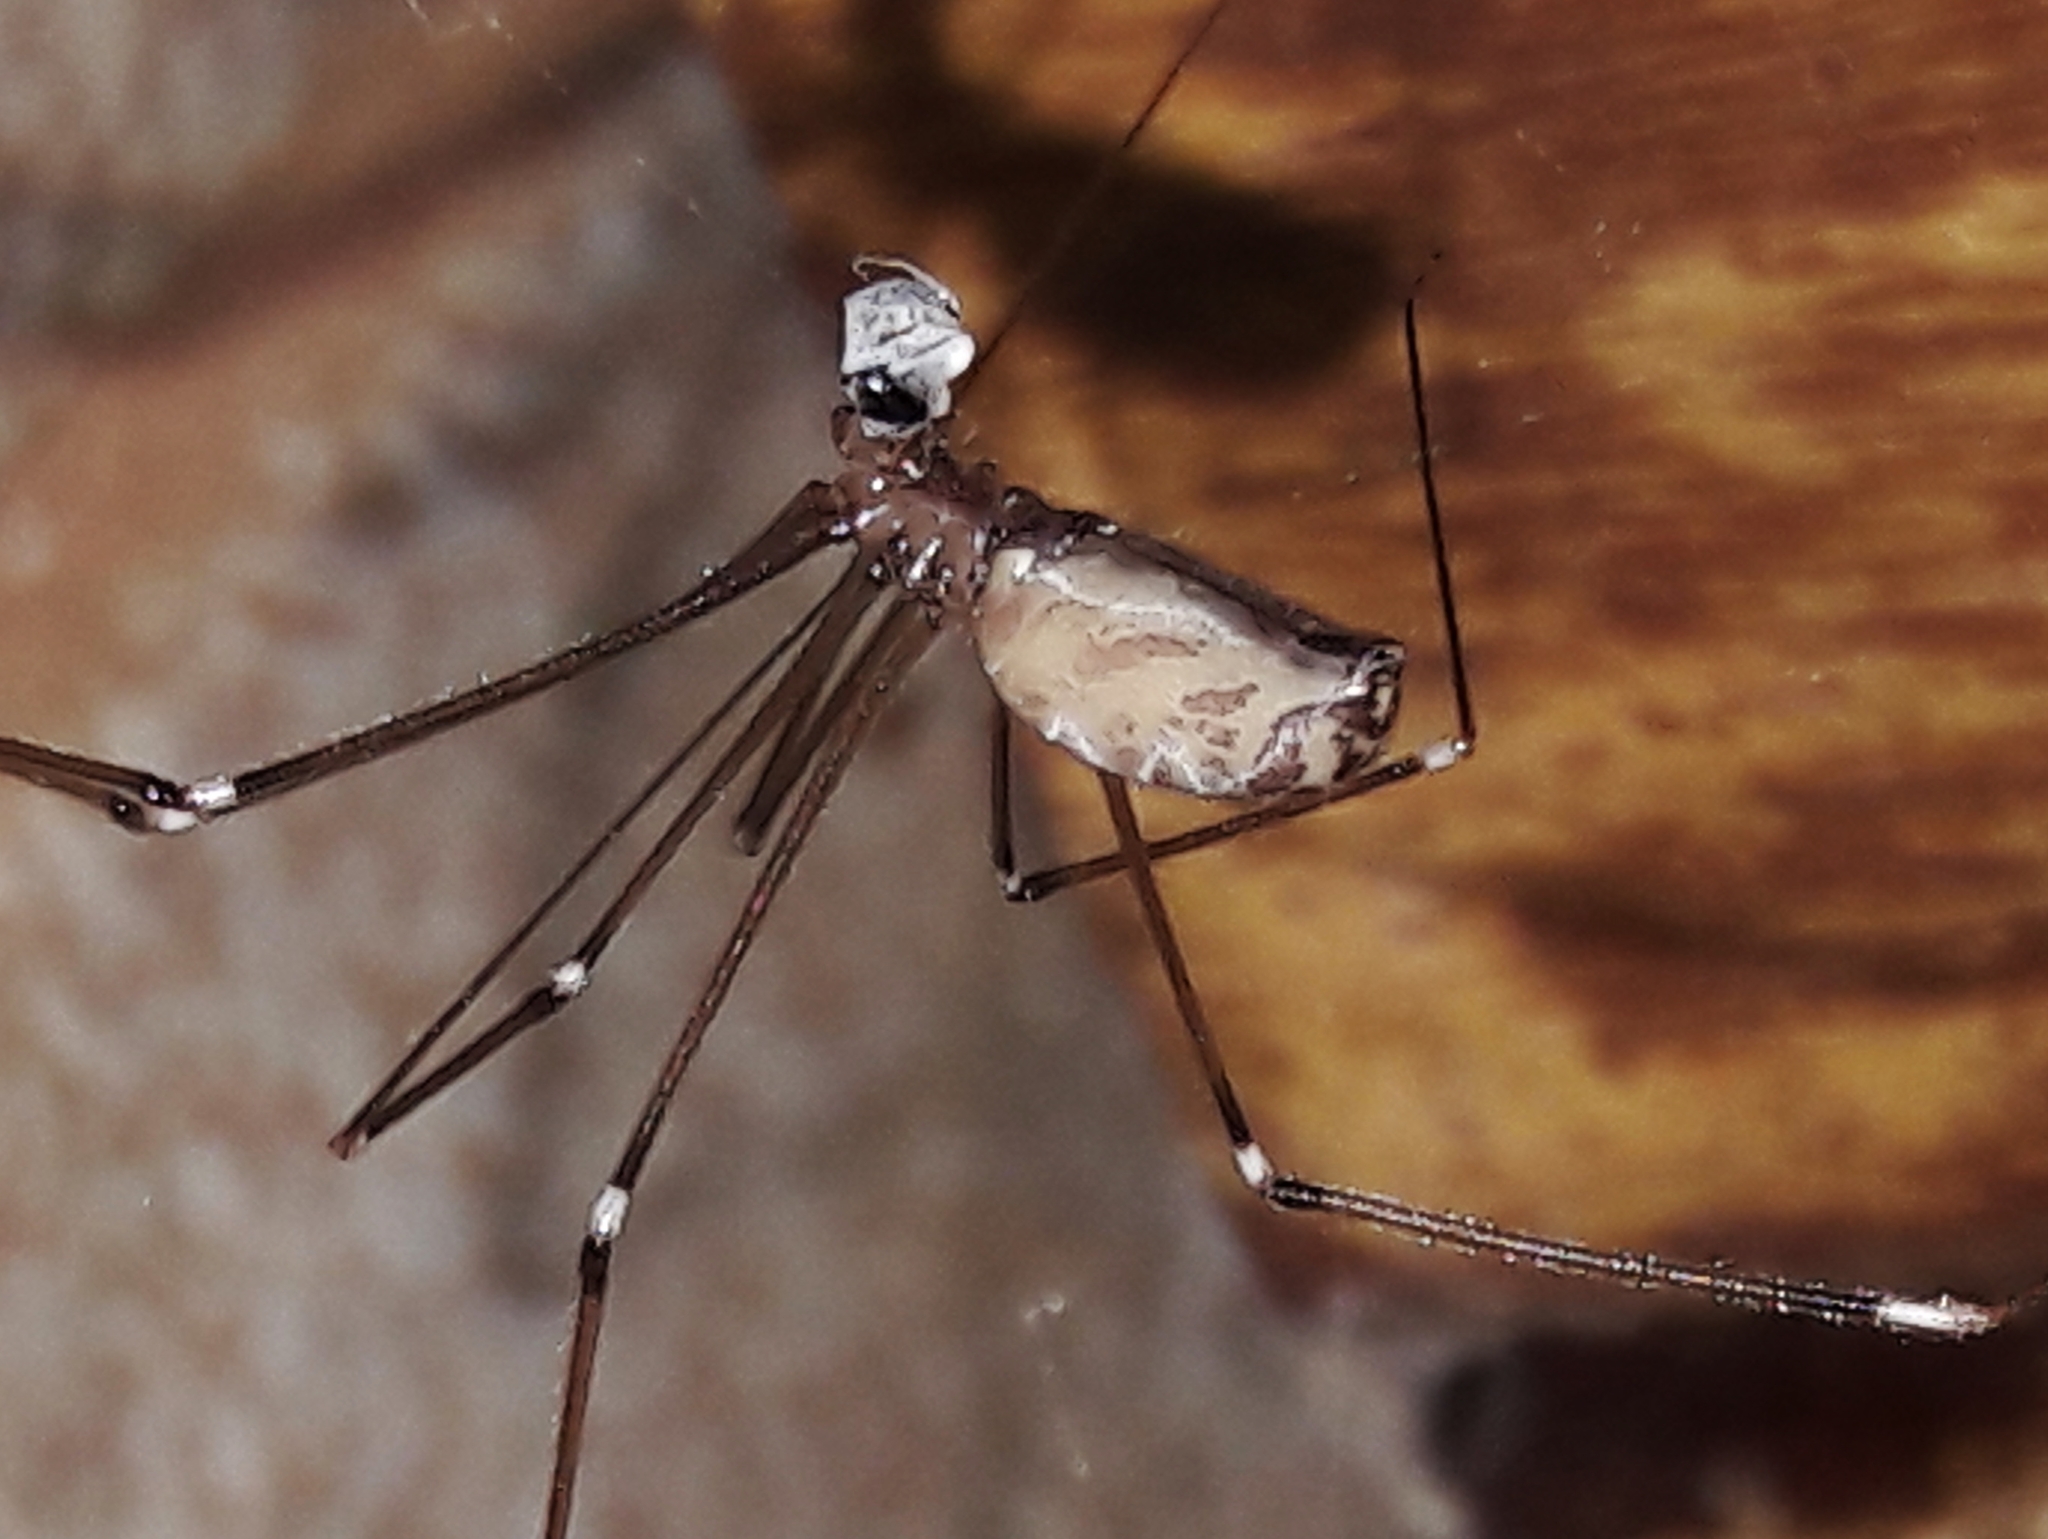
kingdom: Animalia
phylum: Arthropoda
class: Arachnida
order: Araneae
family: Pholcidae
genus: Smeringopus
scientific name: Smeringopus pallidus
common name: Cellar spider
